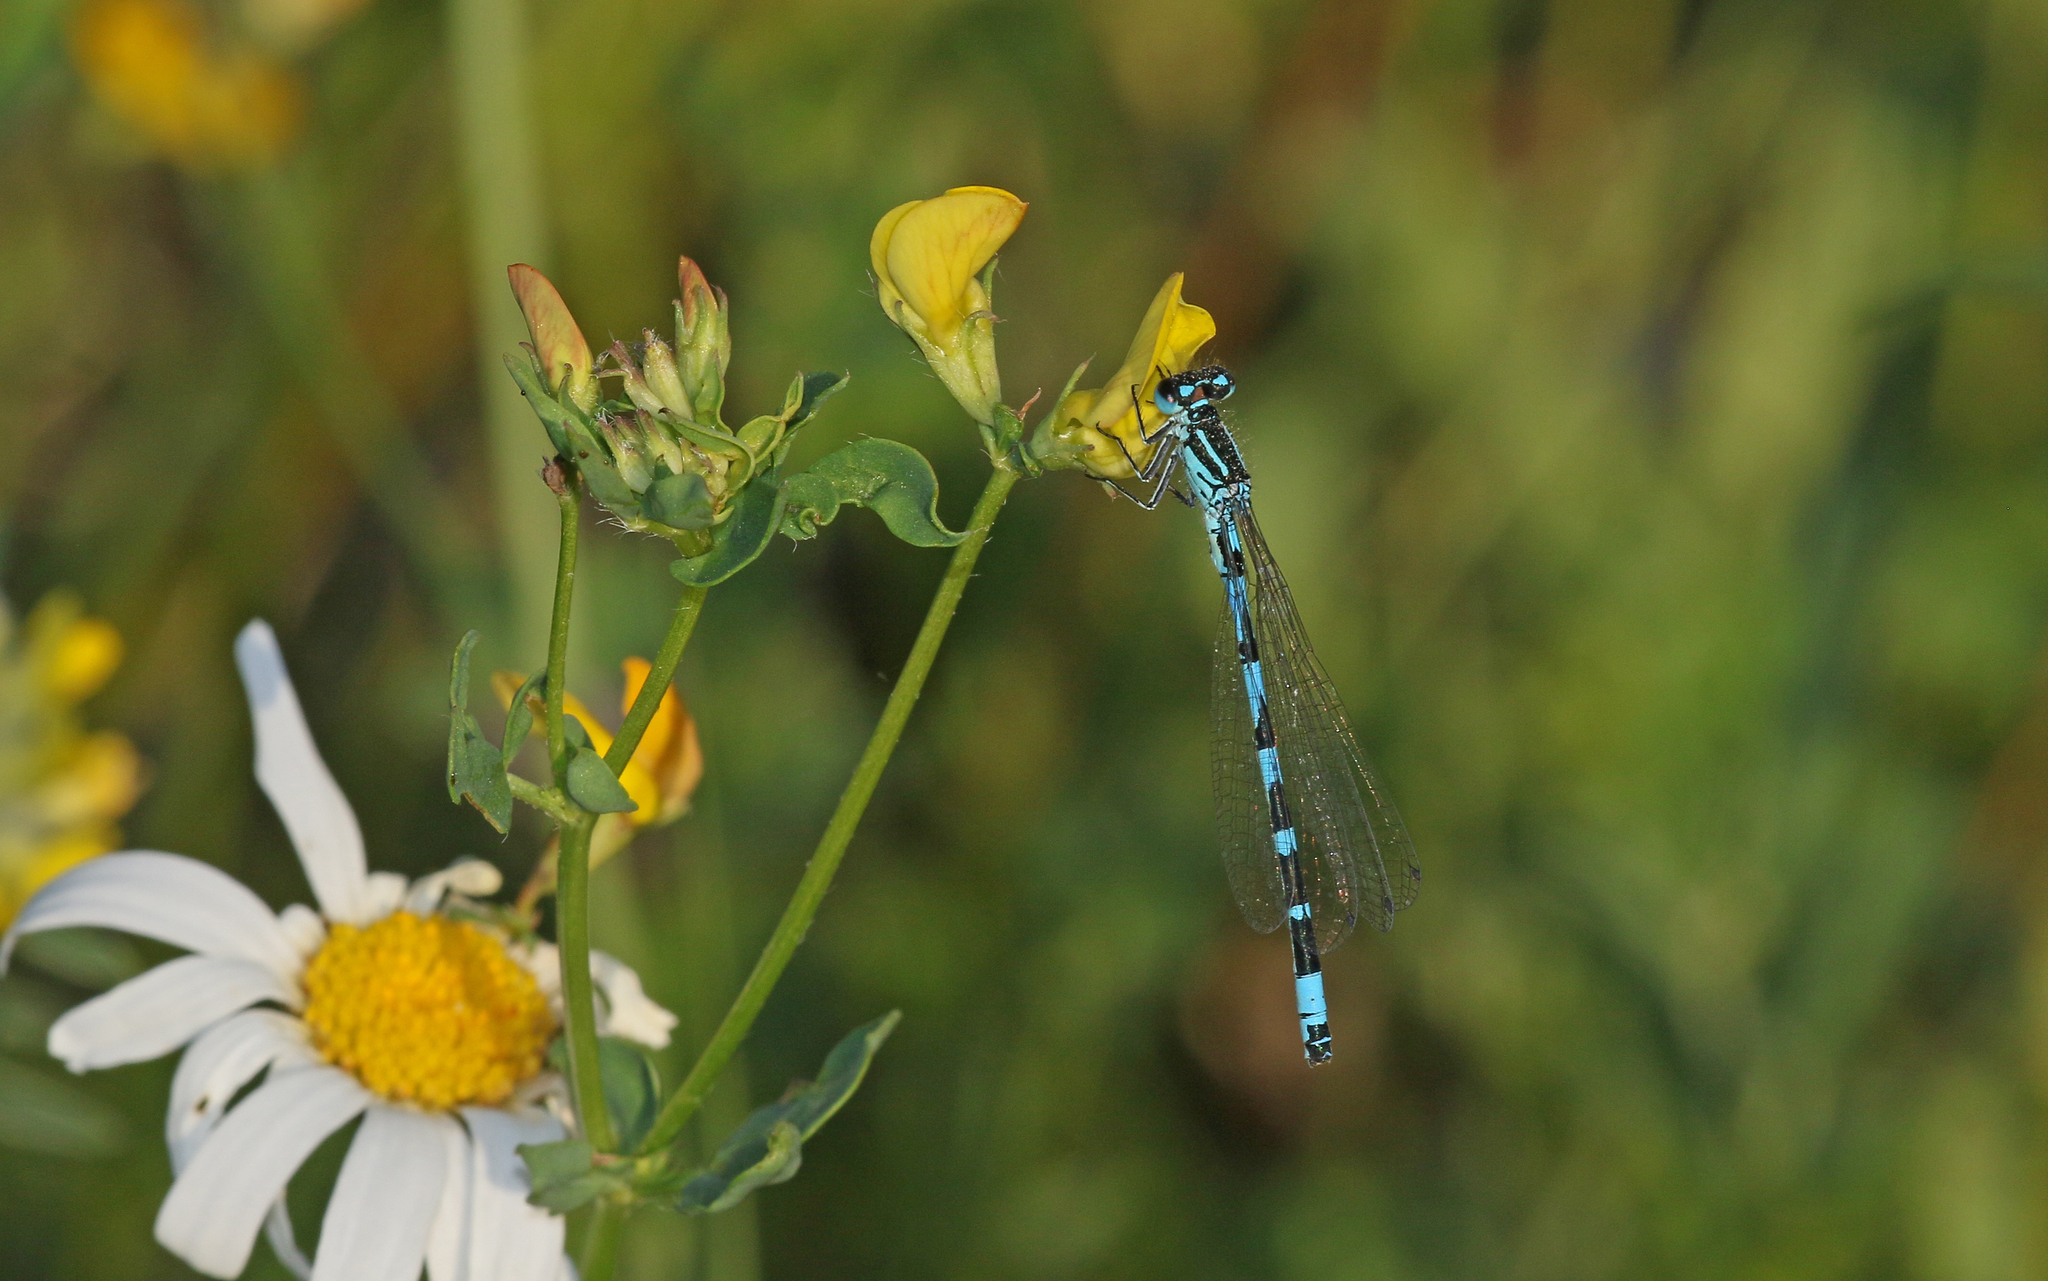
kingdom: Animalia
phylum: Arthropoda
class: Insecta
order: Odonata
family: Coenagrionidae
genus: Coenagrion
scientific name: Coenagrion ornatum
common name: Ornate bluet
